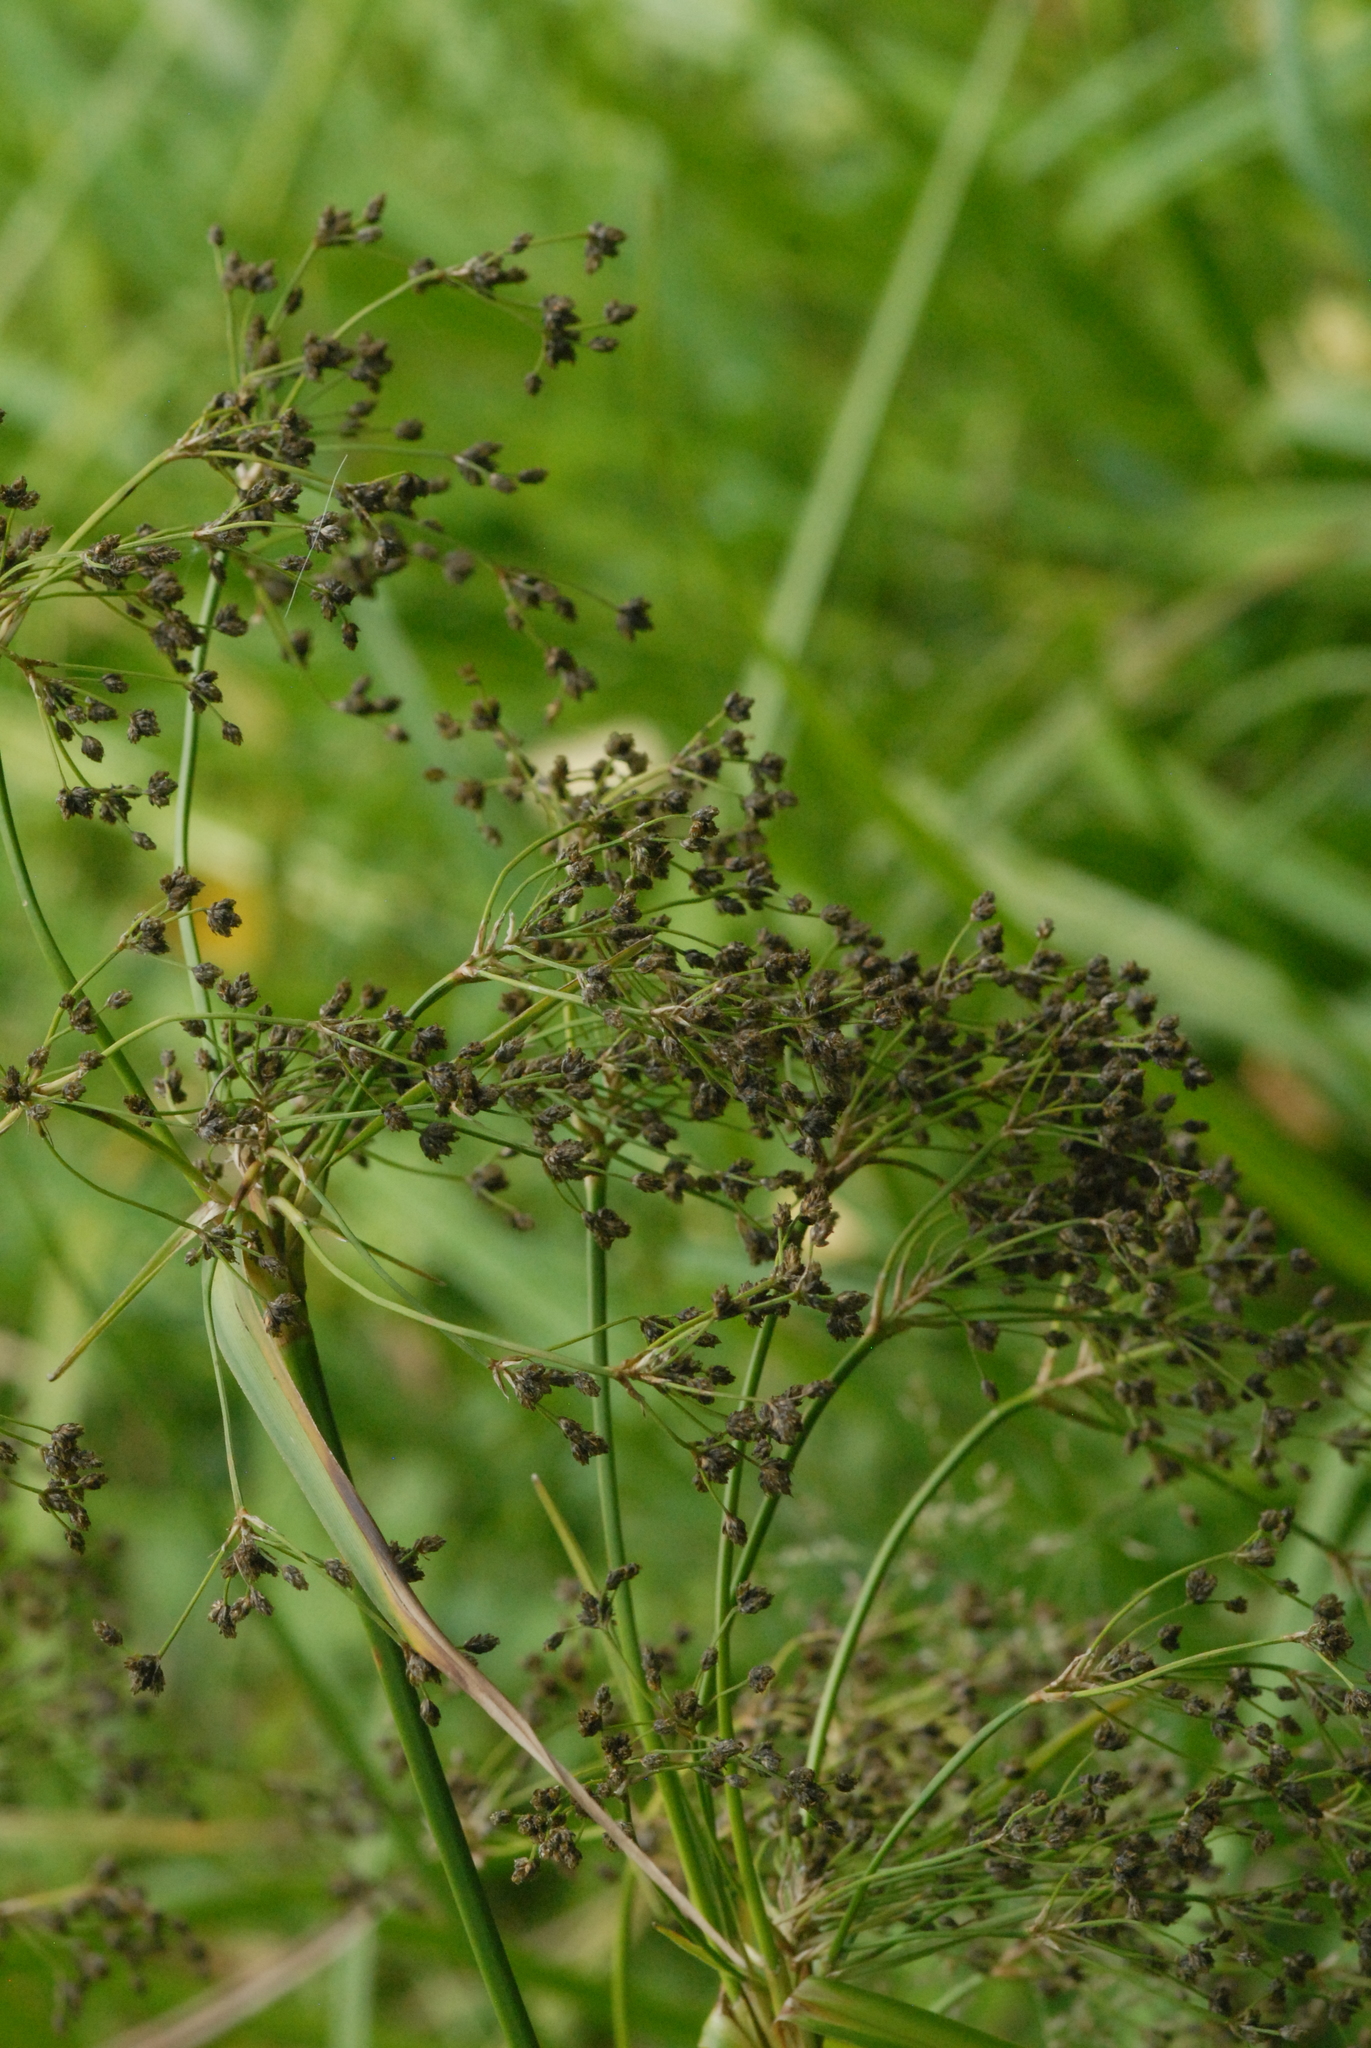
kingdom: Plantae
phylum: Tracheophyta
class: Liliopsida
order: Poales
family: Cyperaceae
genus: Scirpus
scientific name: Scirpus sylvaticus
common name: Wood club-rush
